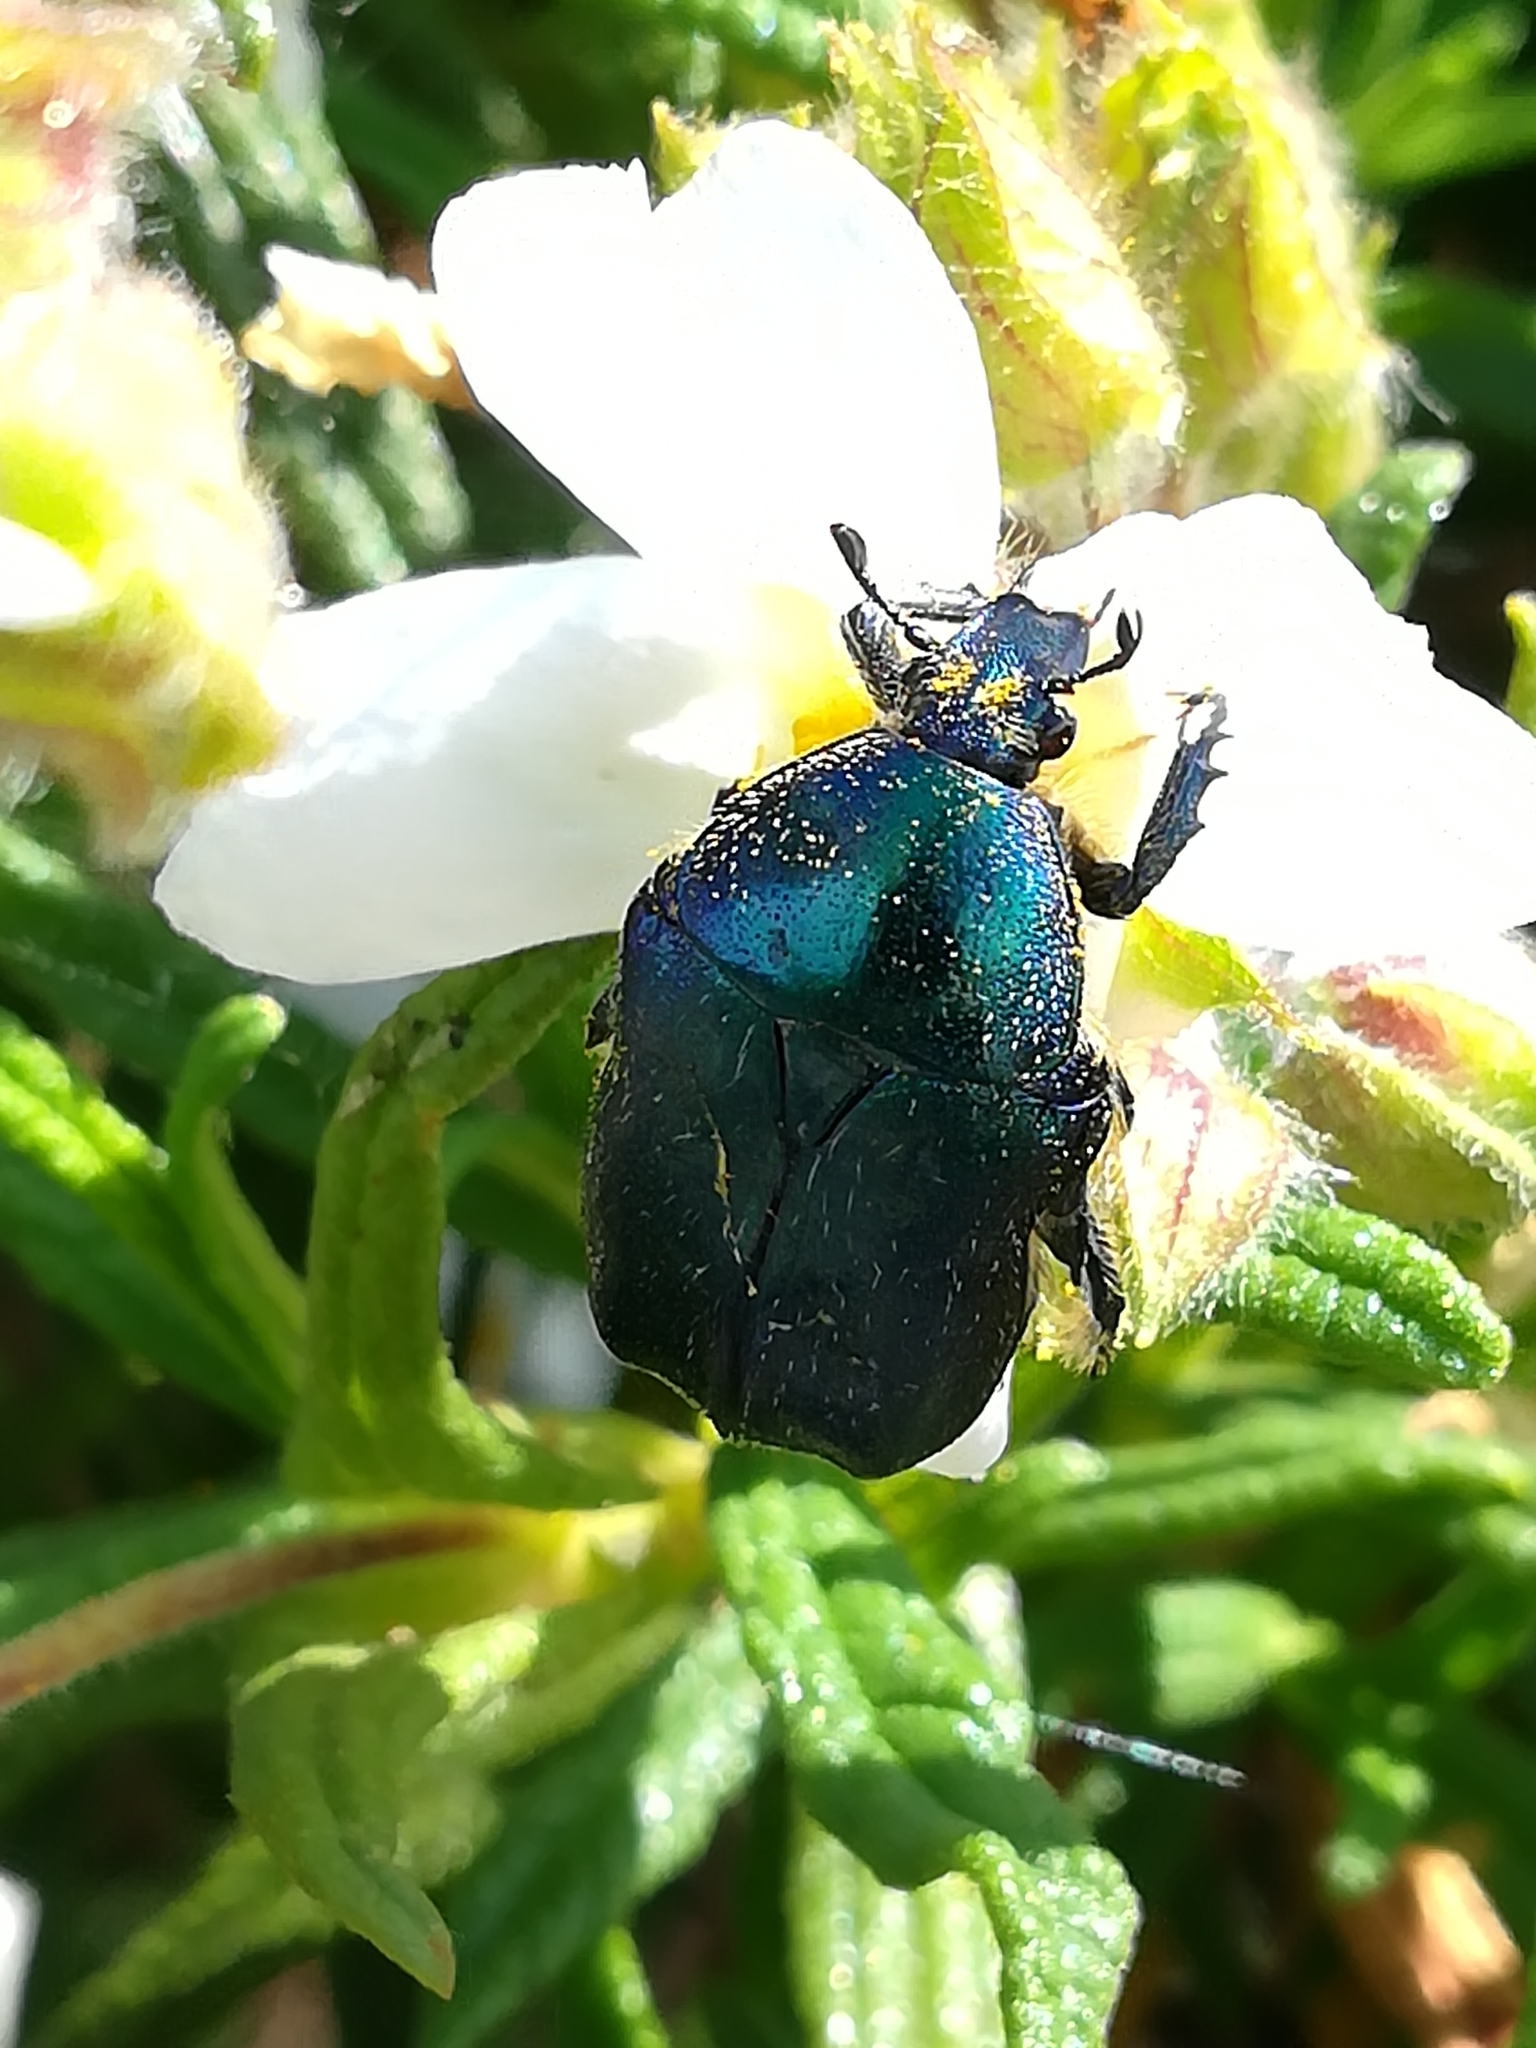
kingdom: Animalia
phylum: Arthropoda
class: Insecta
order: Coleoptera
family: Scarabaeidae
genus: Cetonia
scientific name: Cetonia aurata
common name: Rose chafer
